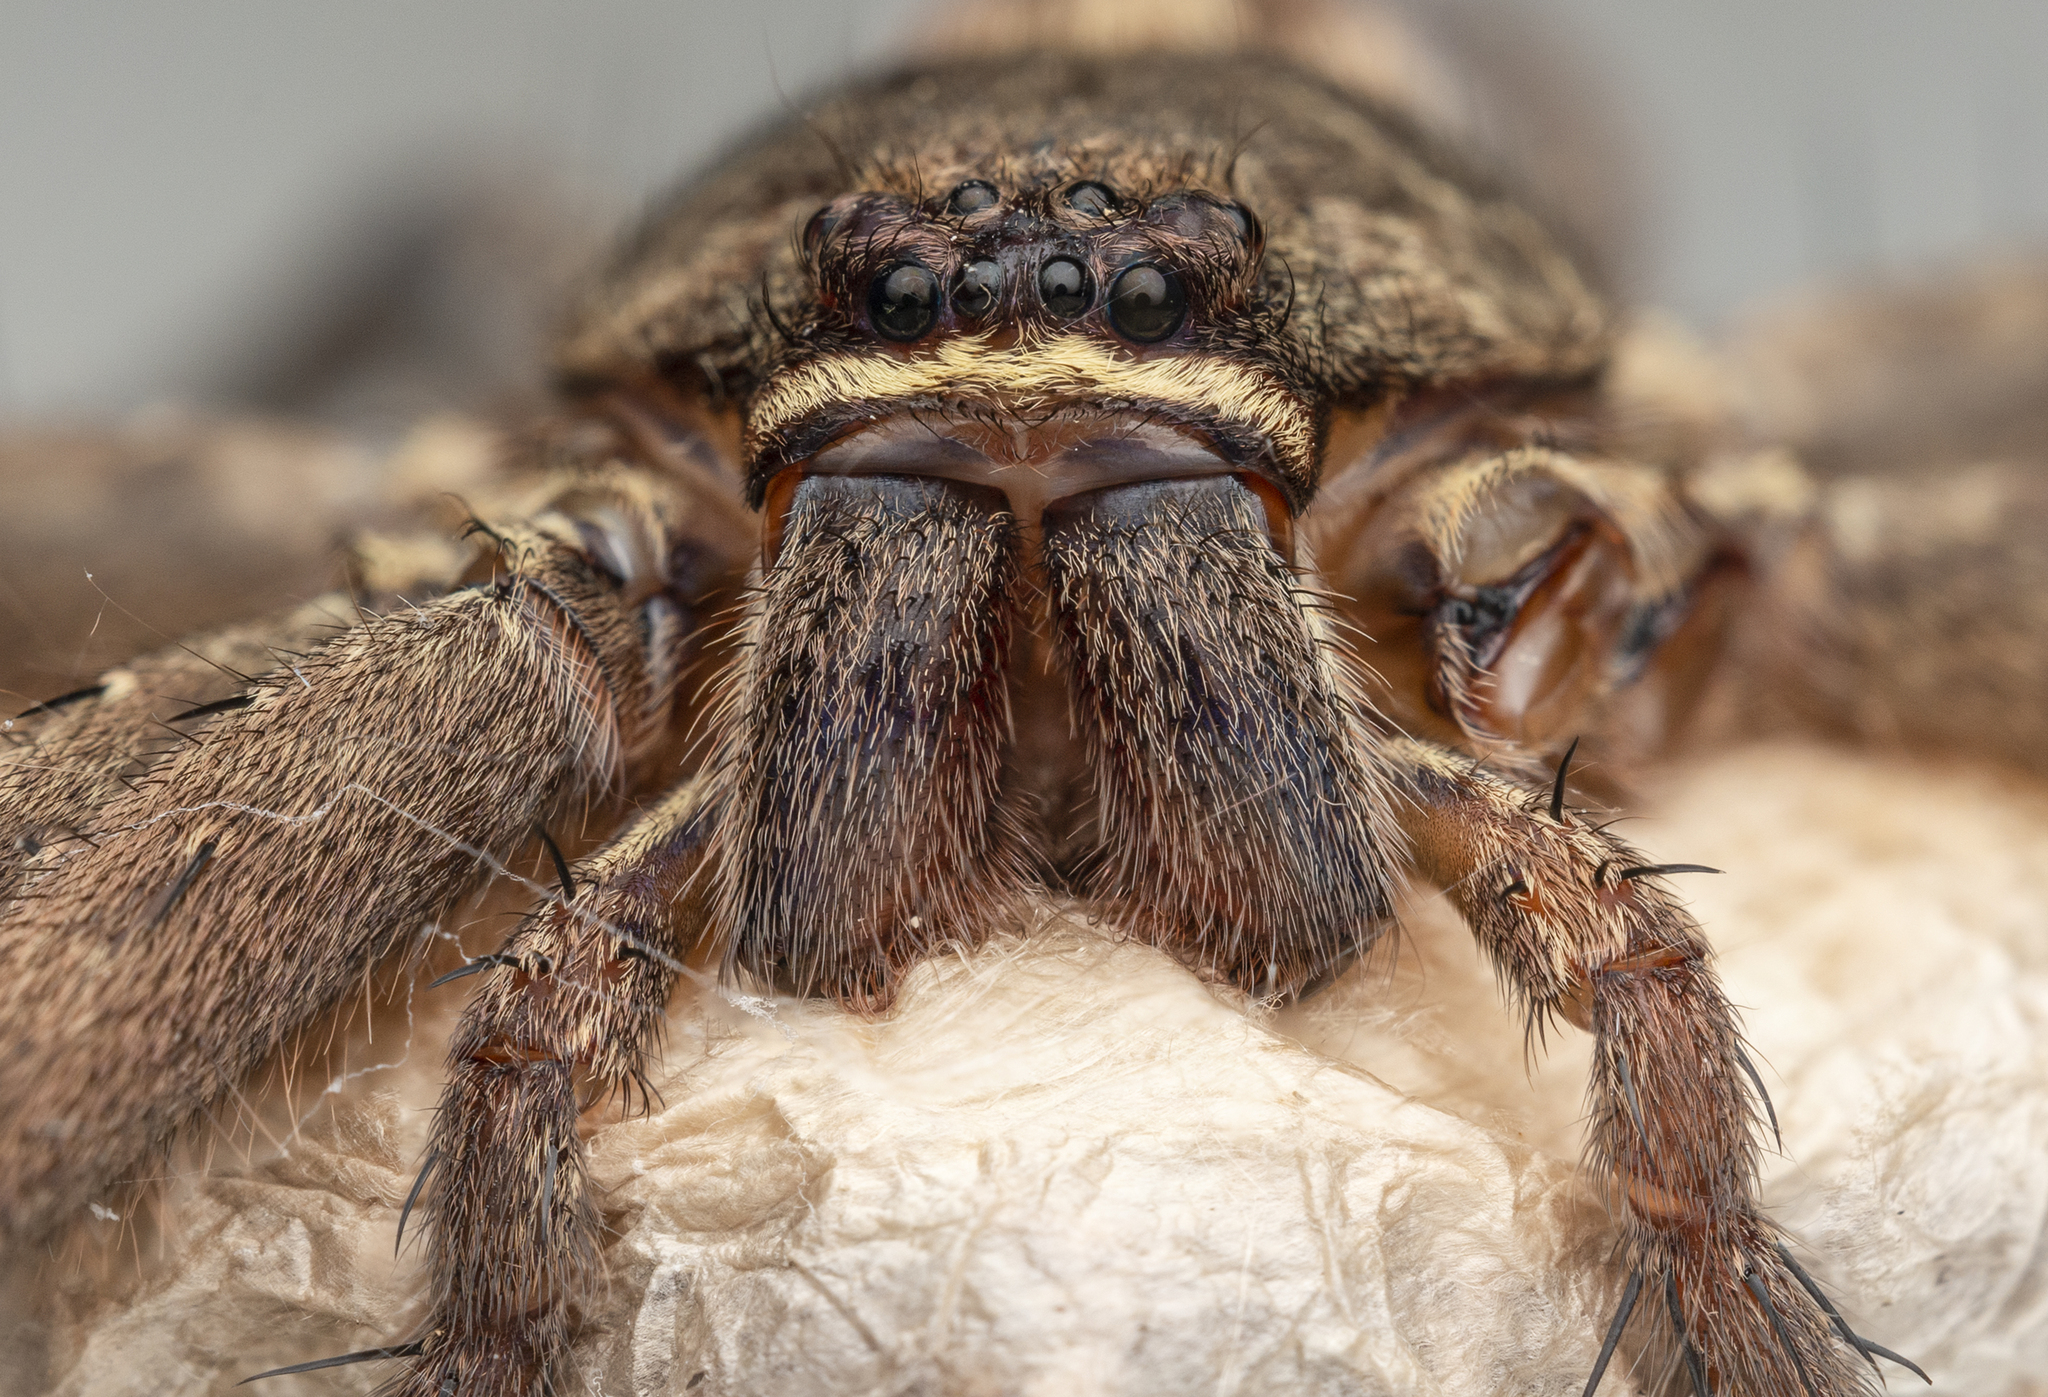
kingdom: Animalia
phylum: Arthropoda
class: Arachnida
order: Araneae
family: Sparassidae
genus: Heteropoda
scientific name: Heteropoda venatoria
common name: Huntsman spider
